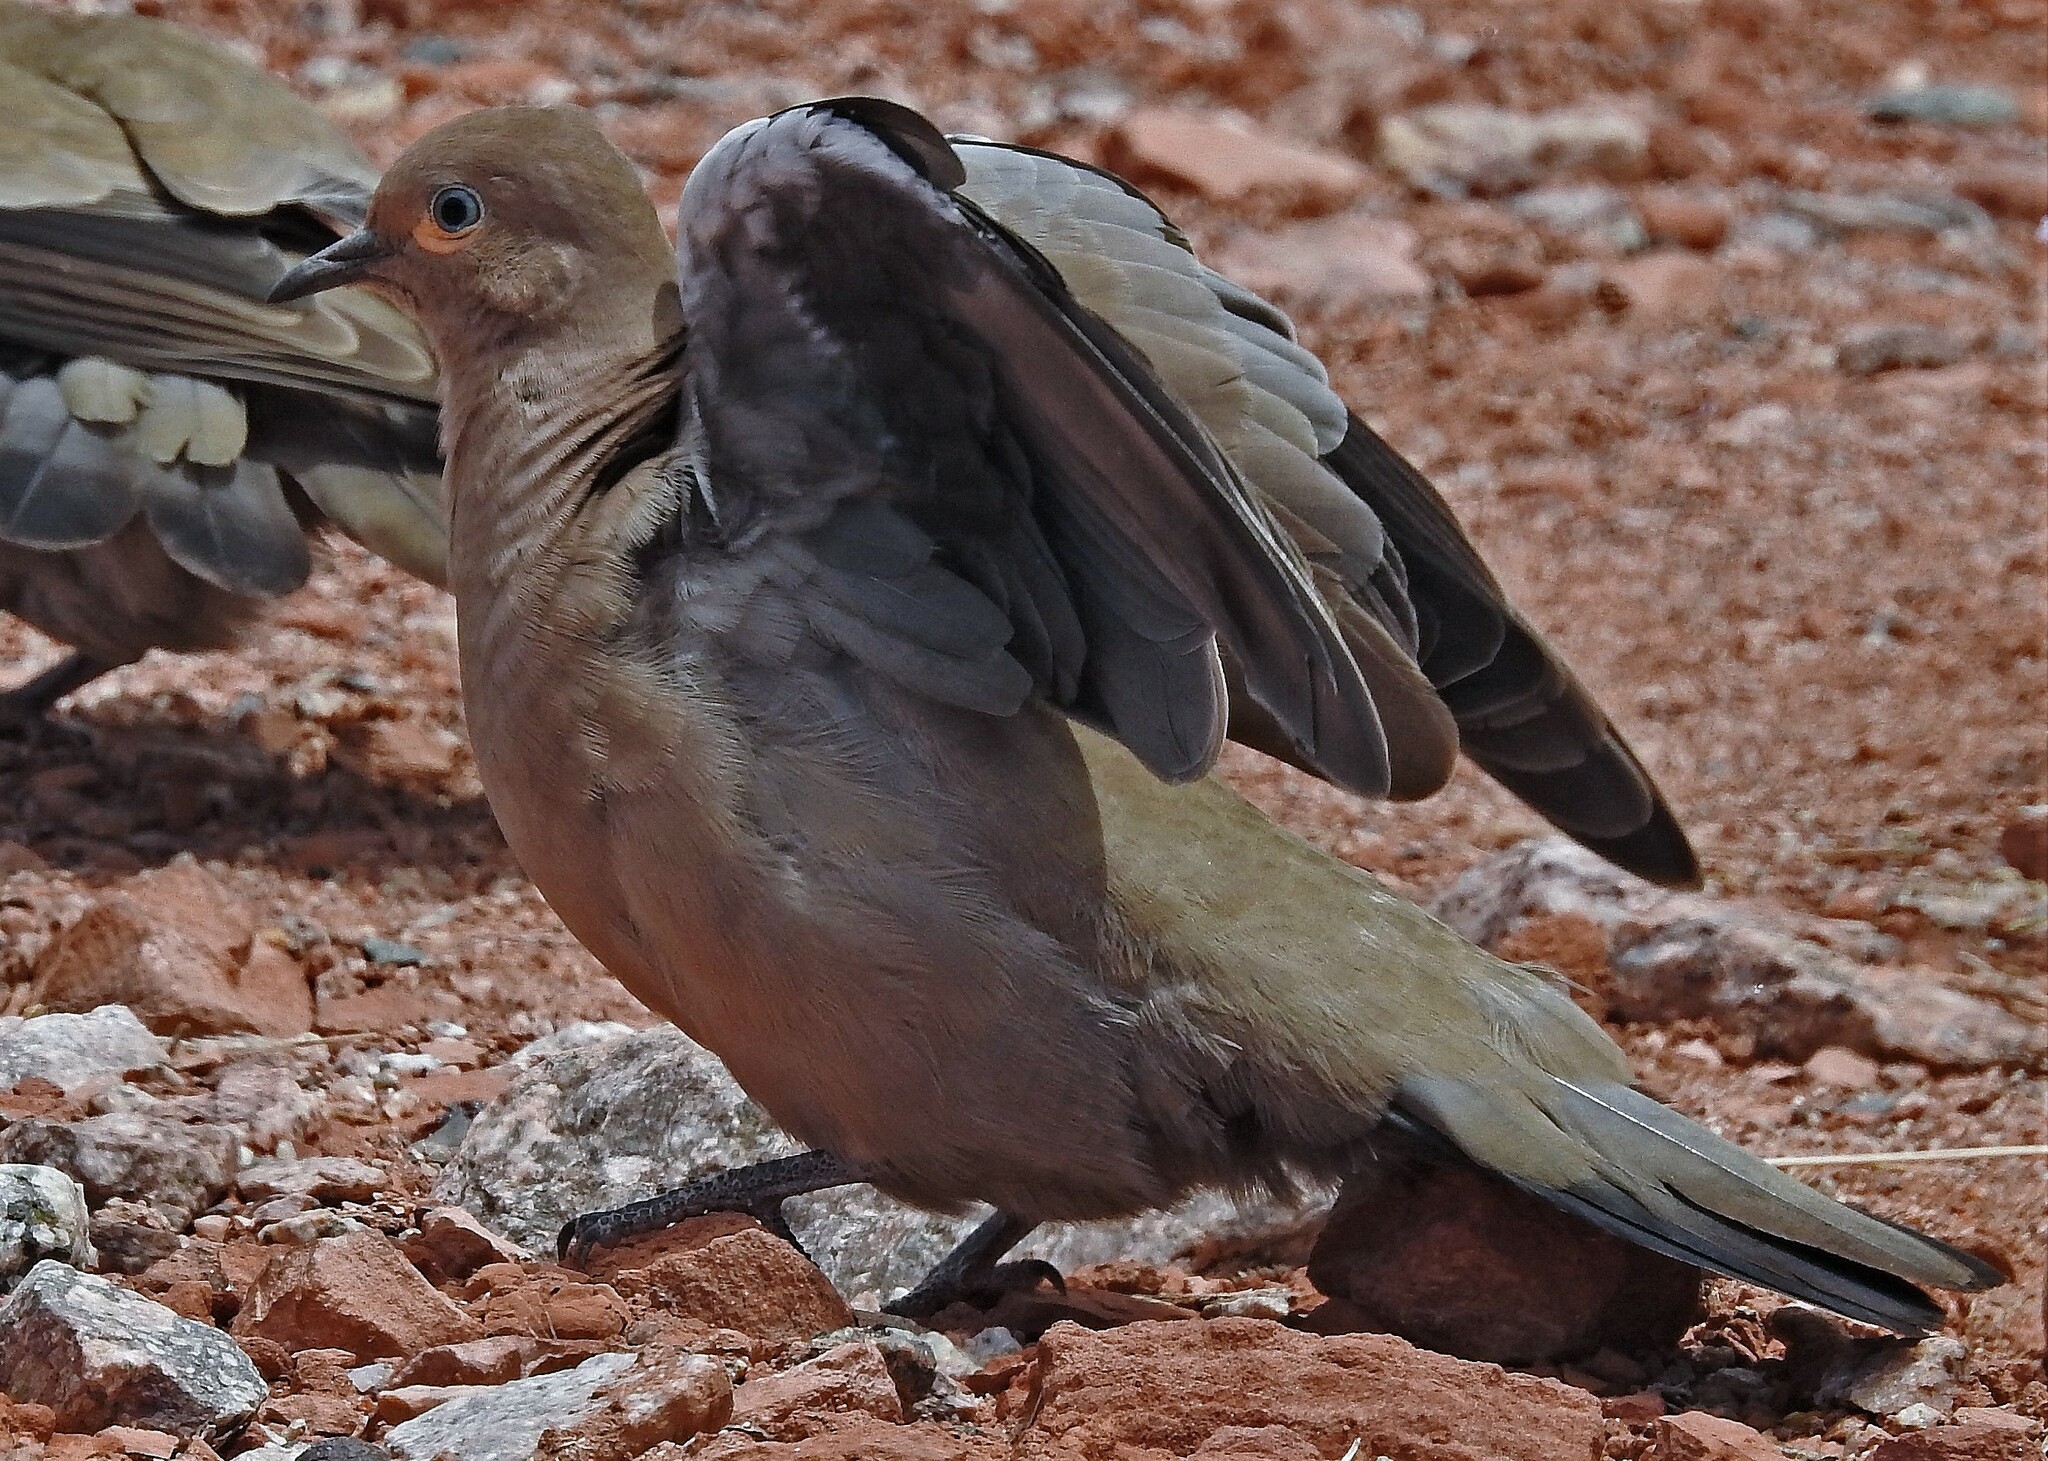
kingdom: Animalia
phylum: Chordata
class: Aves
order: Columbiformes
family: Columbidae
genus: Metriopelia
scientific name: Metriopelia melanoptera
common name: Black-winged ground dove
